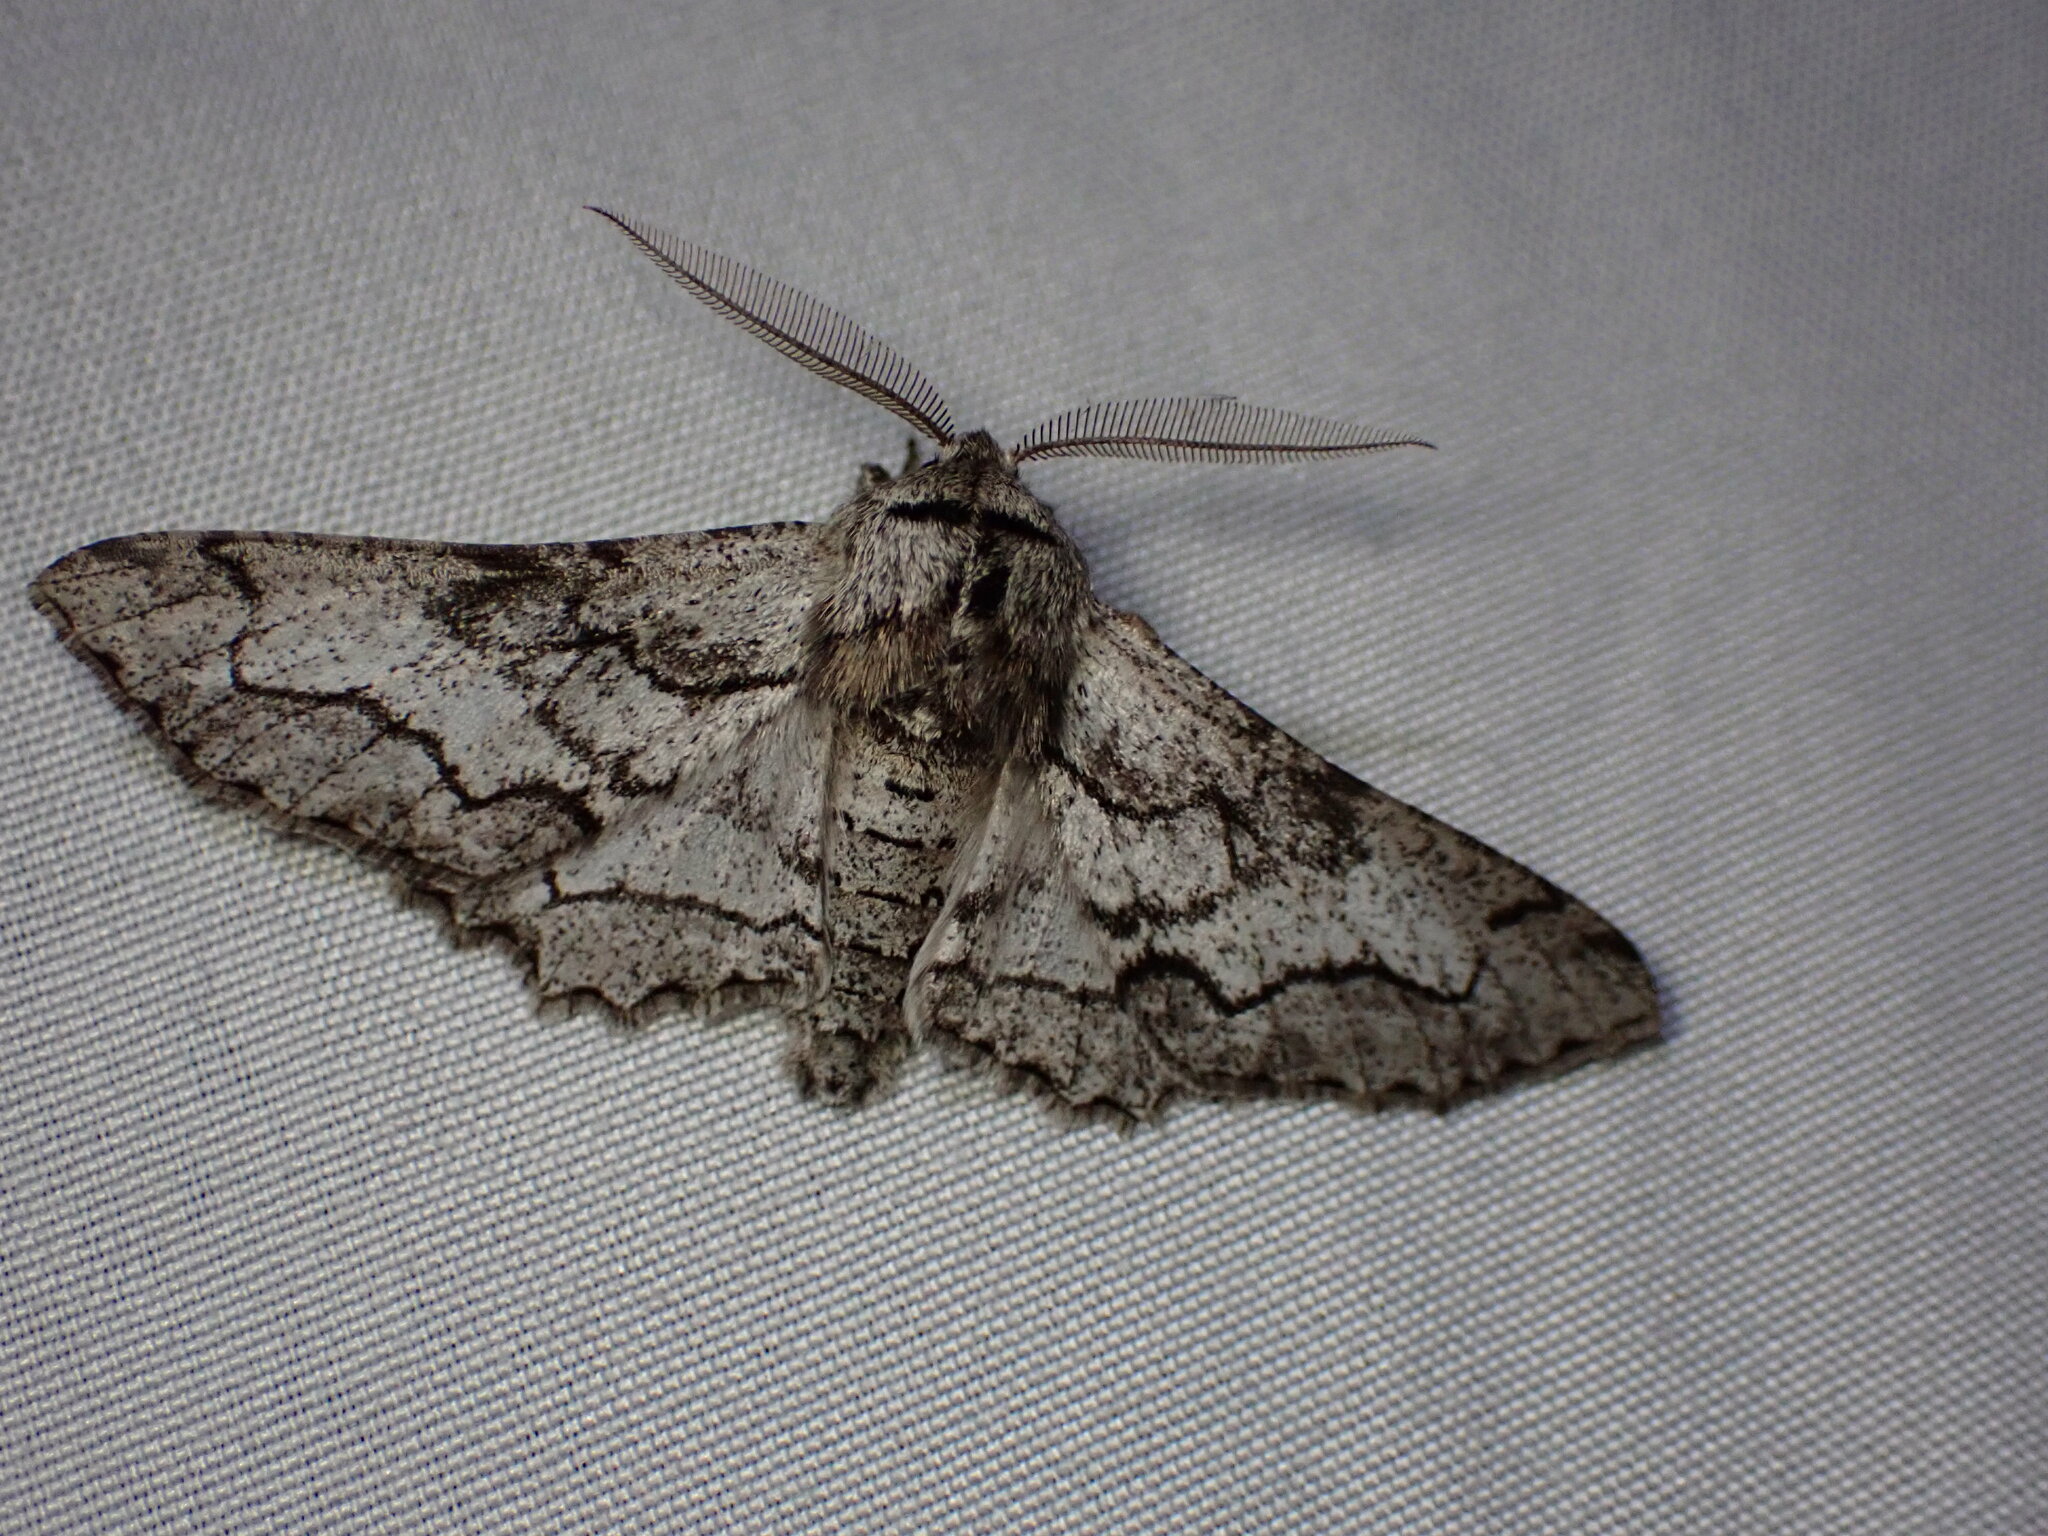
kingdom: Animalia
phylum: Arthropoda
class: Insecta
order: Lepidoptera
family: Geometridae
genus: Biston
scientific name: Biston sinuata
